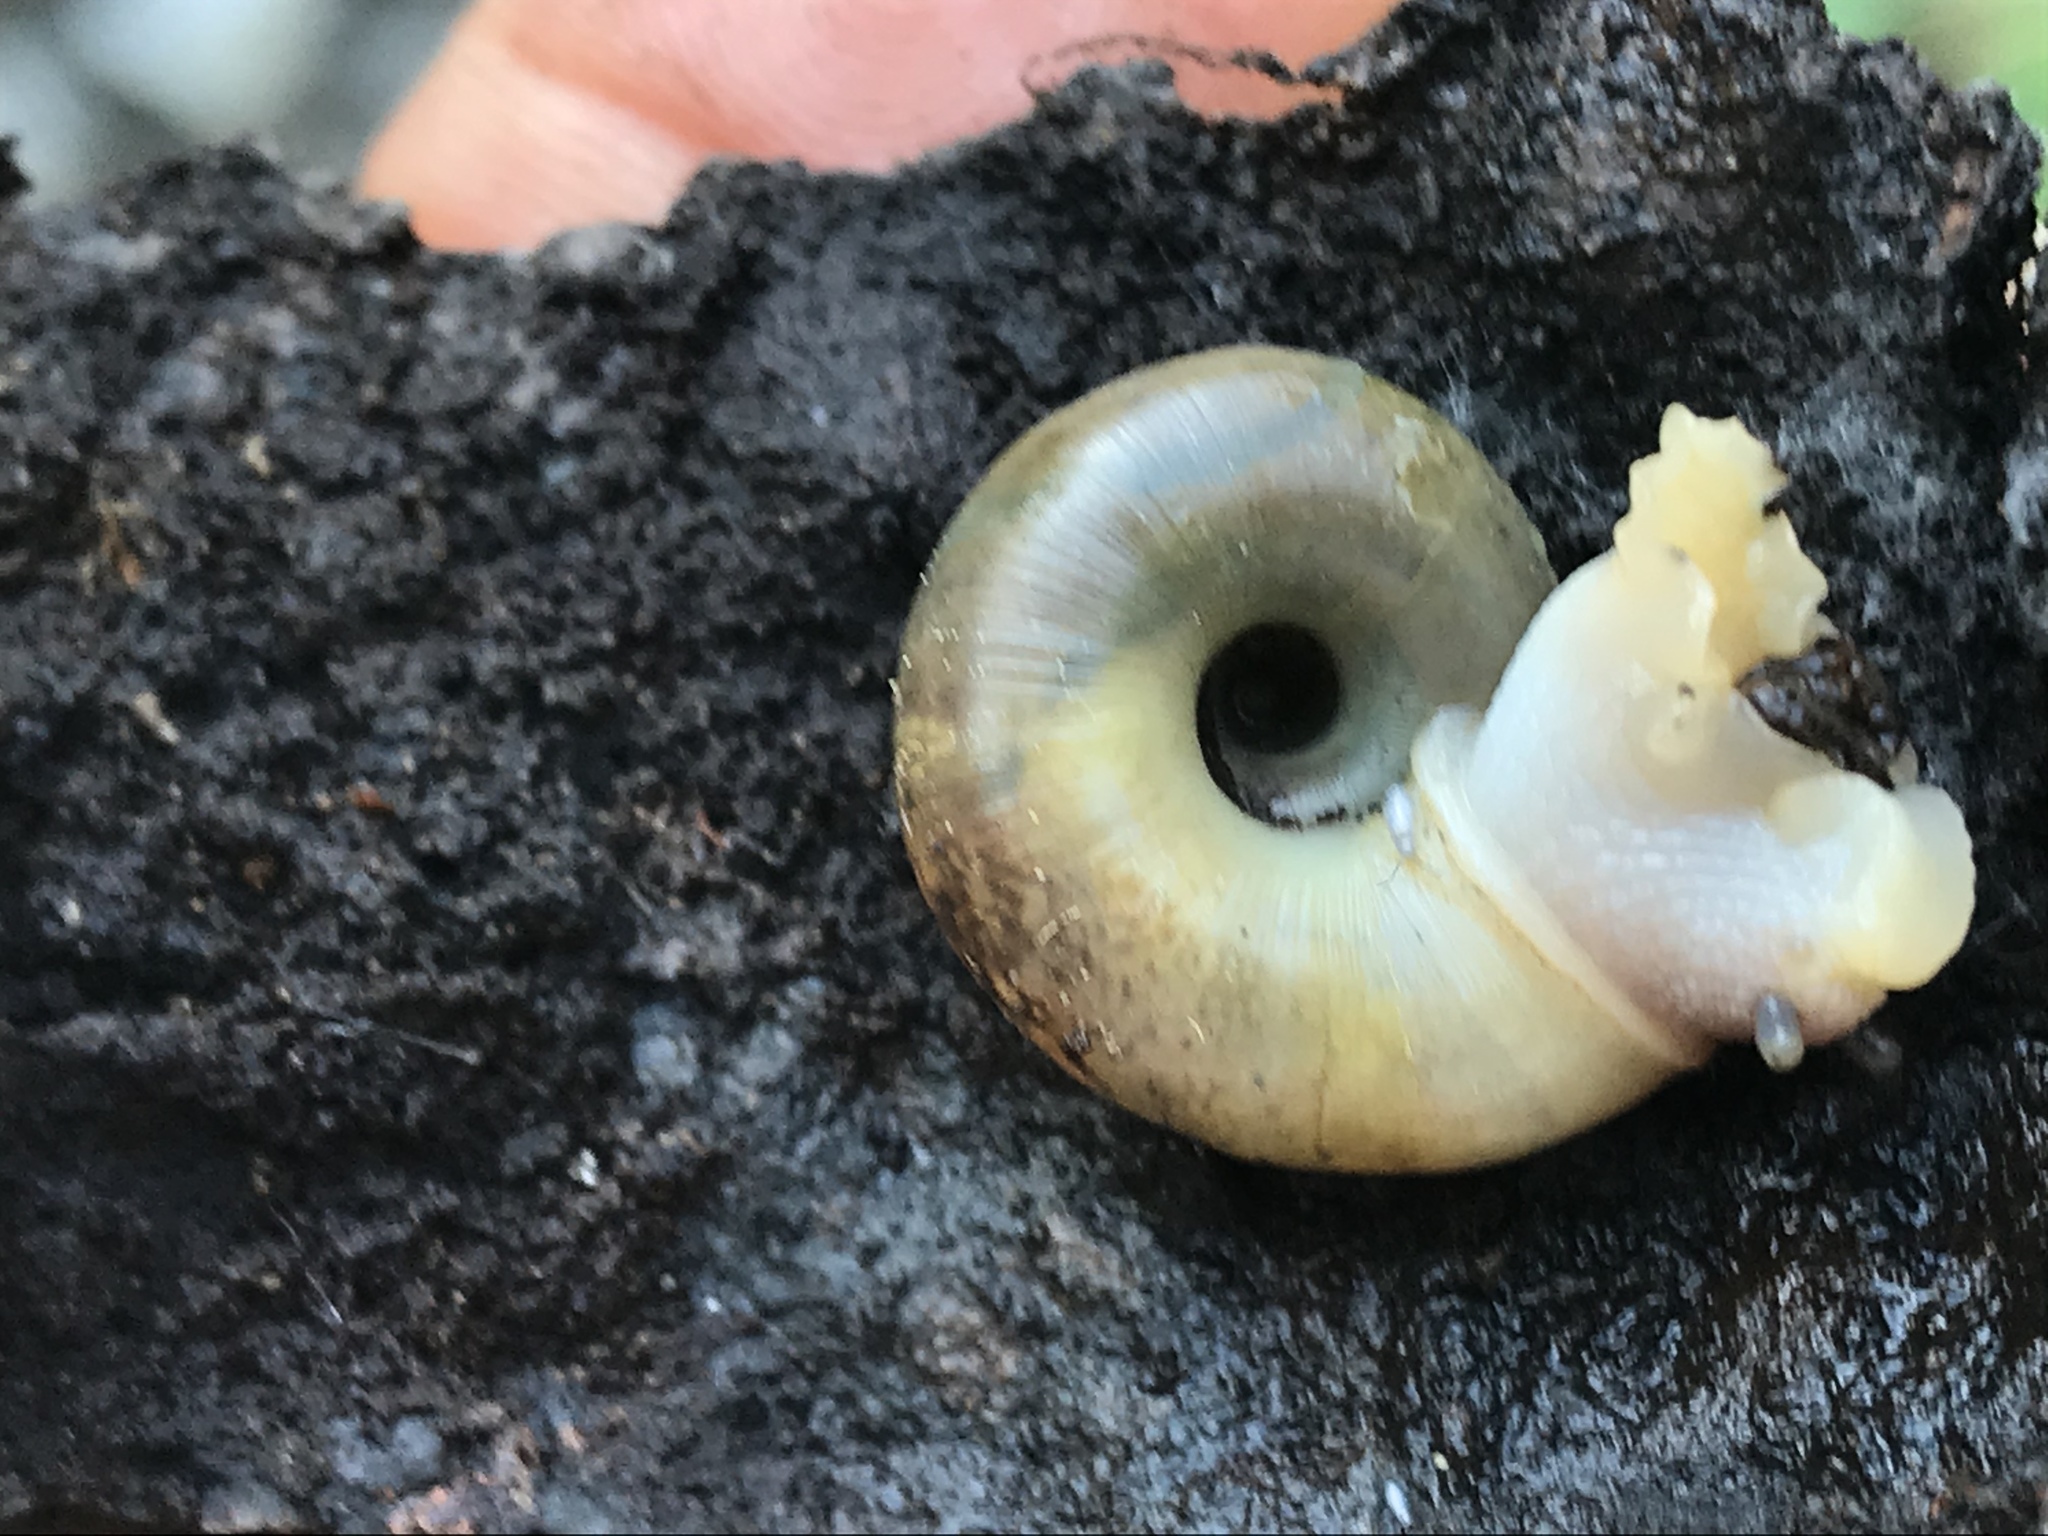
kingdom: Animalia
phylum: Mollusca
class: Gastropoda
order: Stylommatophora
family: Haplotrematidae
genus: Haplotrema
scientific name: Haplotrema minimum
